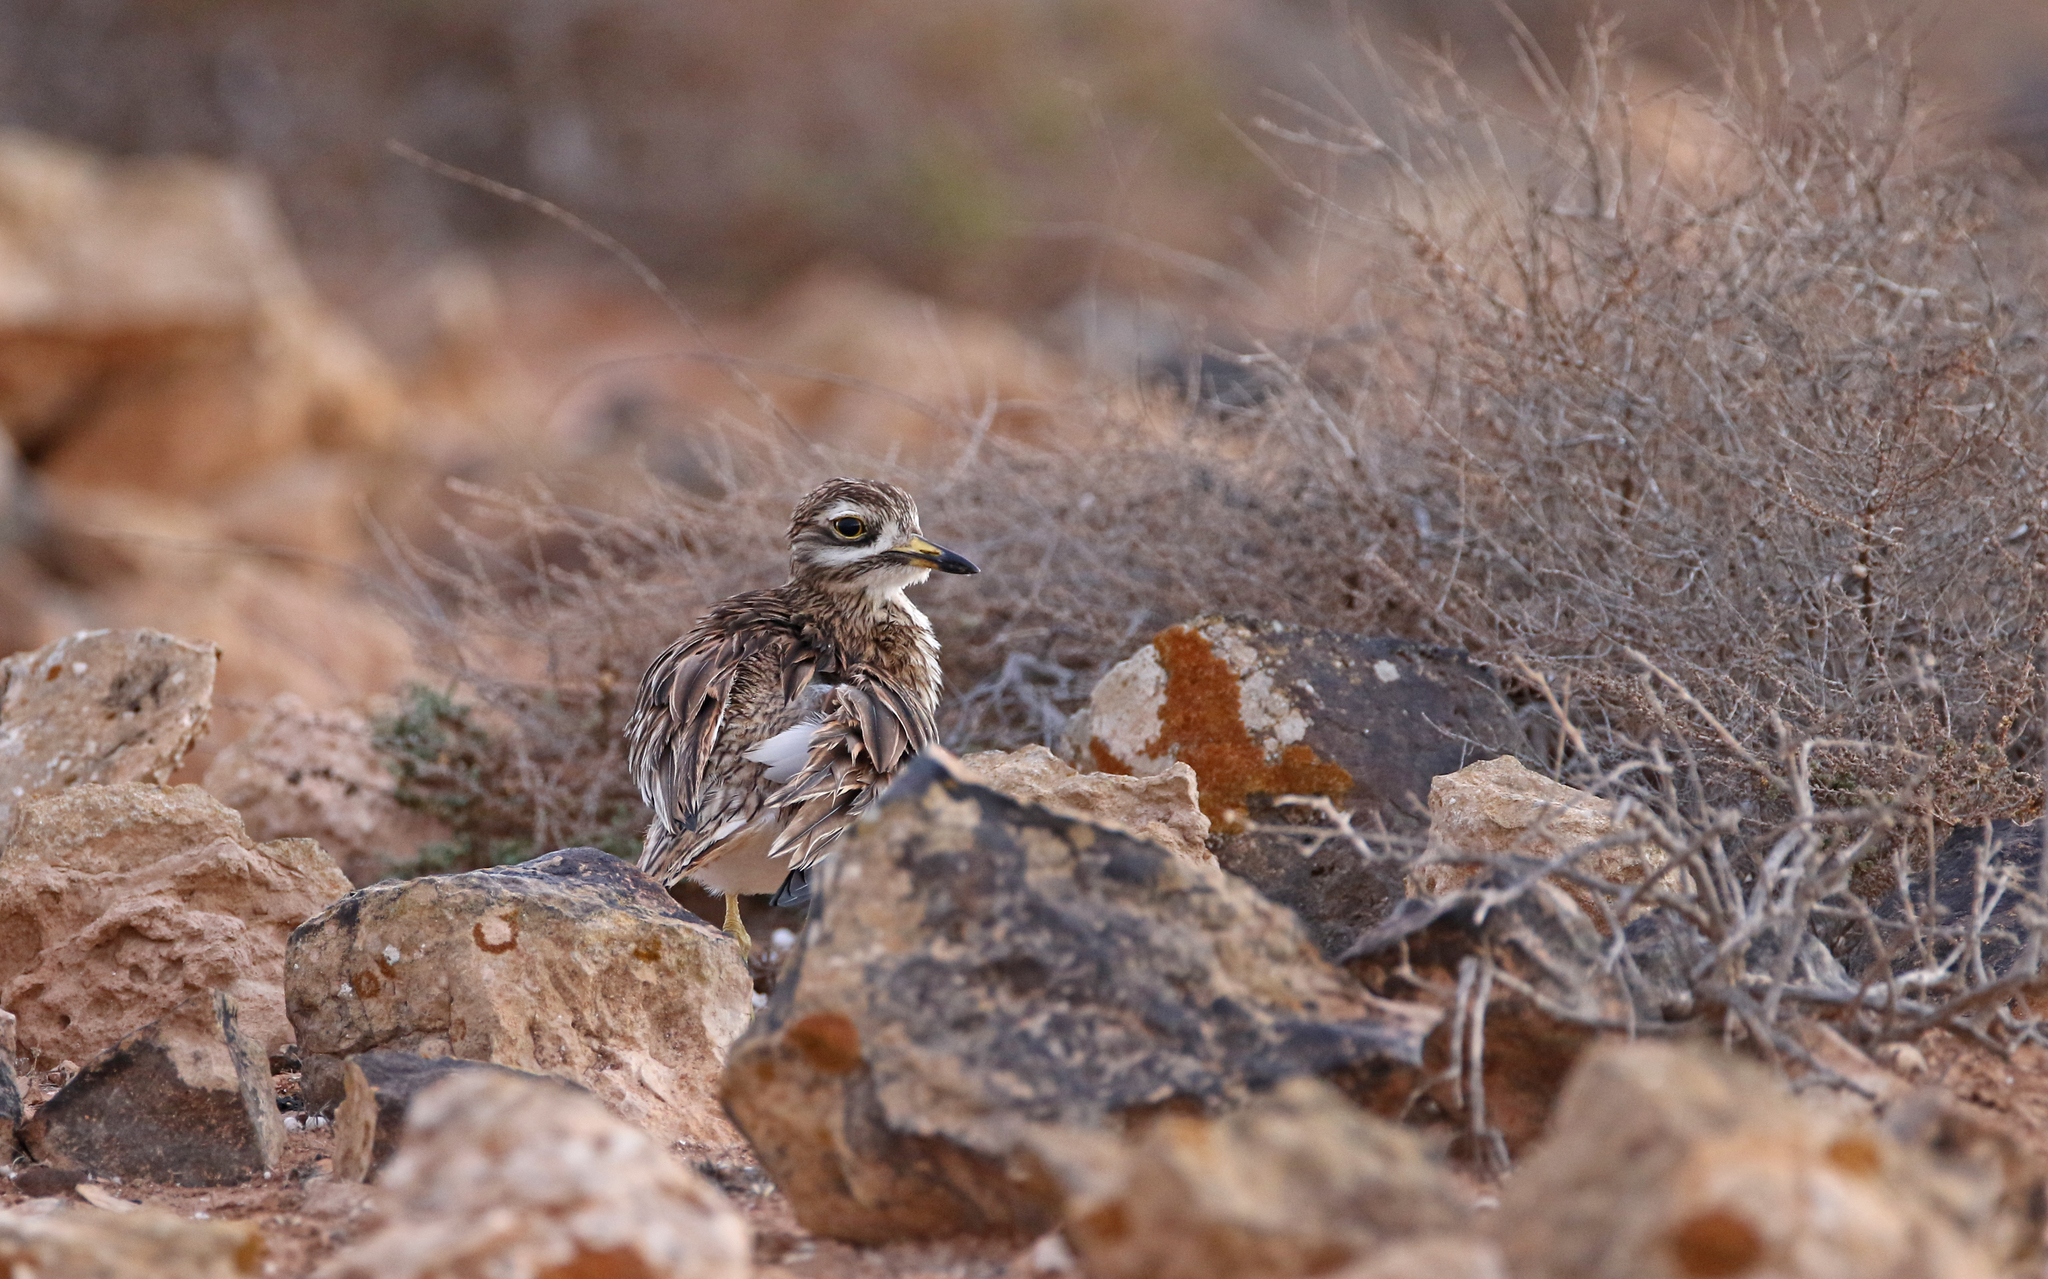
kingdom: Animalia
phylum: Chordata
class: Aves
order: Charadriiformes
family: Burhinidae
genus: Burhinus
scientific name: Burhinus oedicnemus
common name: Eurasian stone-curlew
